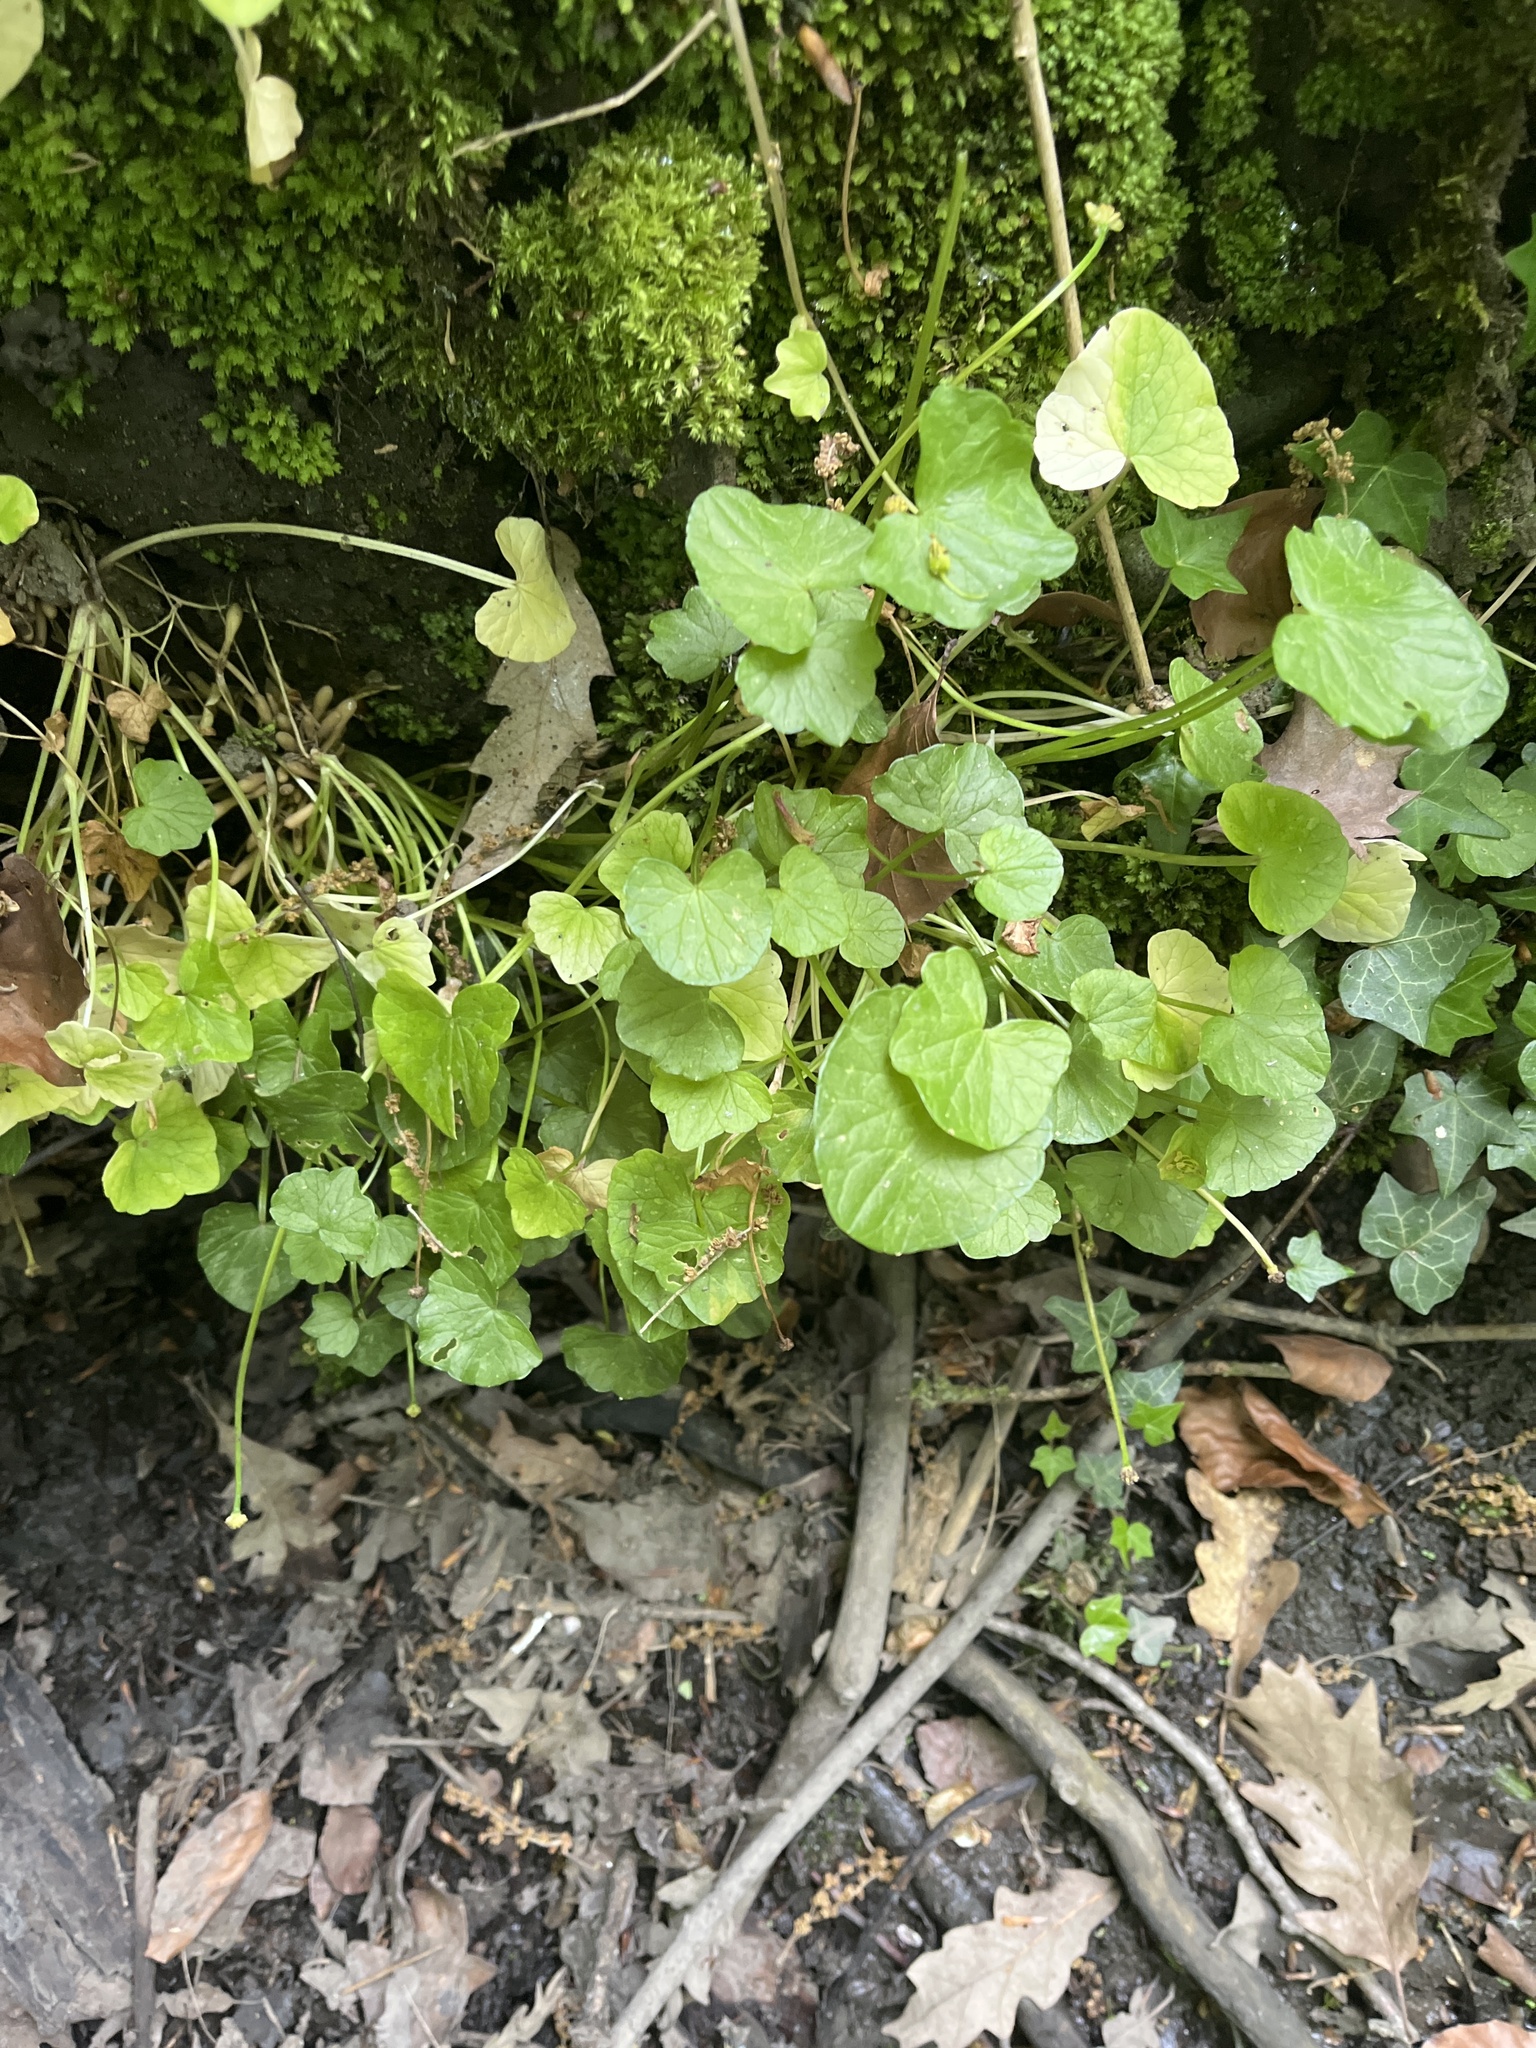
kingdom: Plantae
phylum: Tracheophyta
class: Magnoliopsida
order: Ranunculales
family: Ranunculaceae
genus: Ficaria
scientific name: Ficaria verna
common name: Lesser celandine
